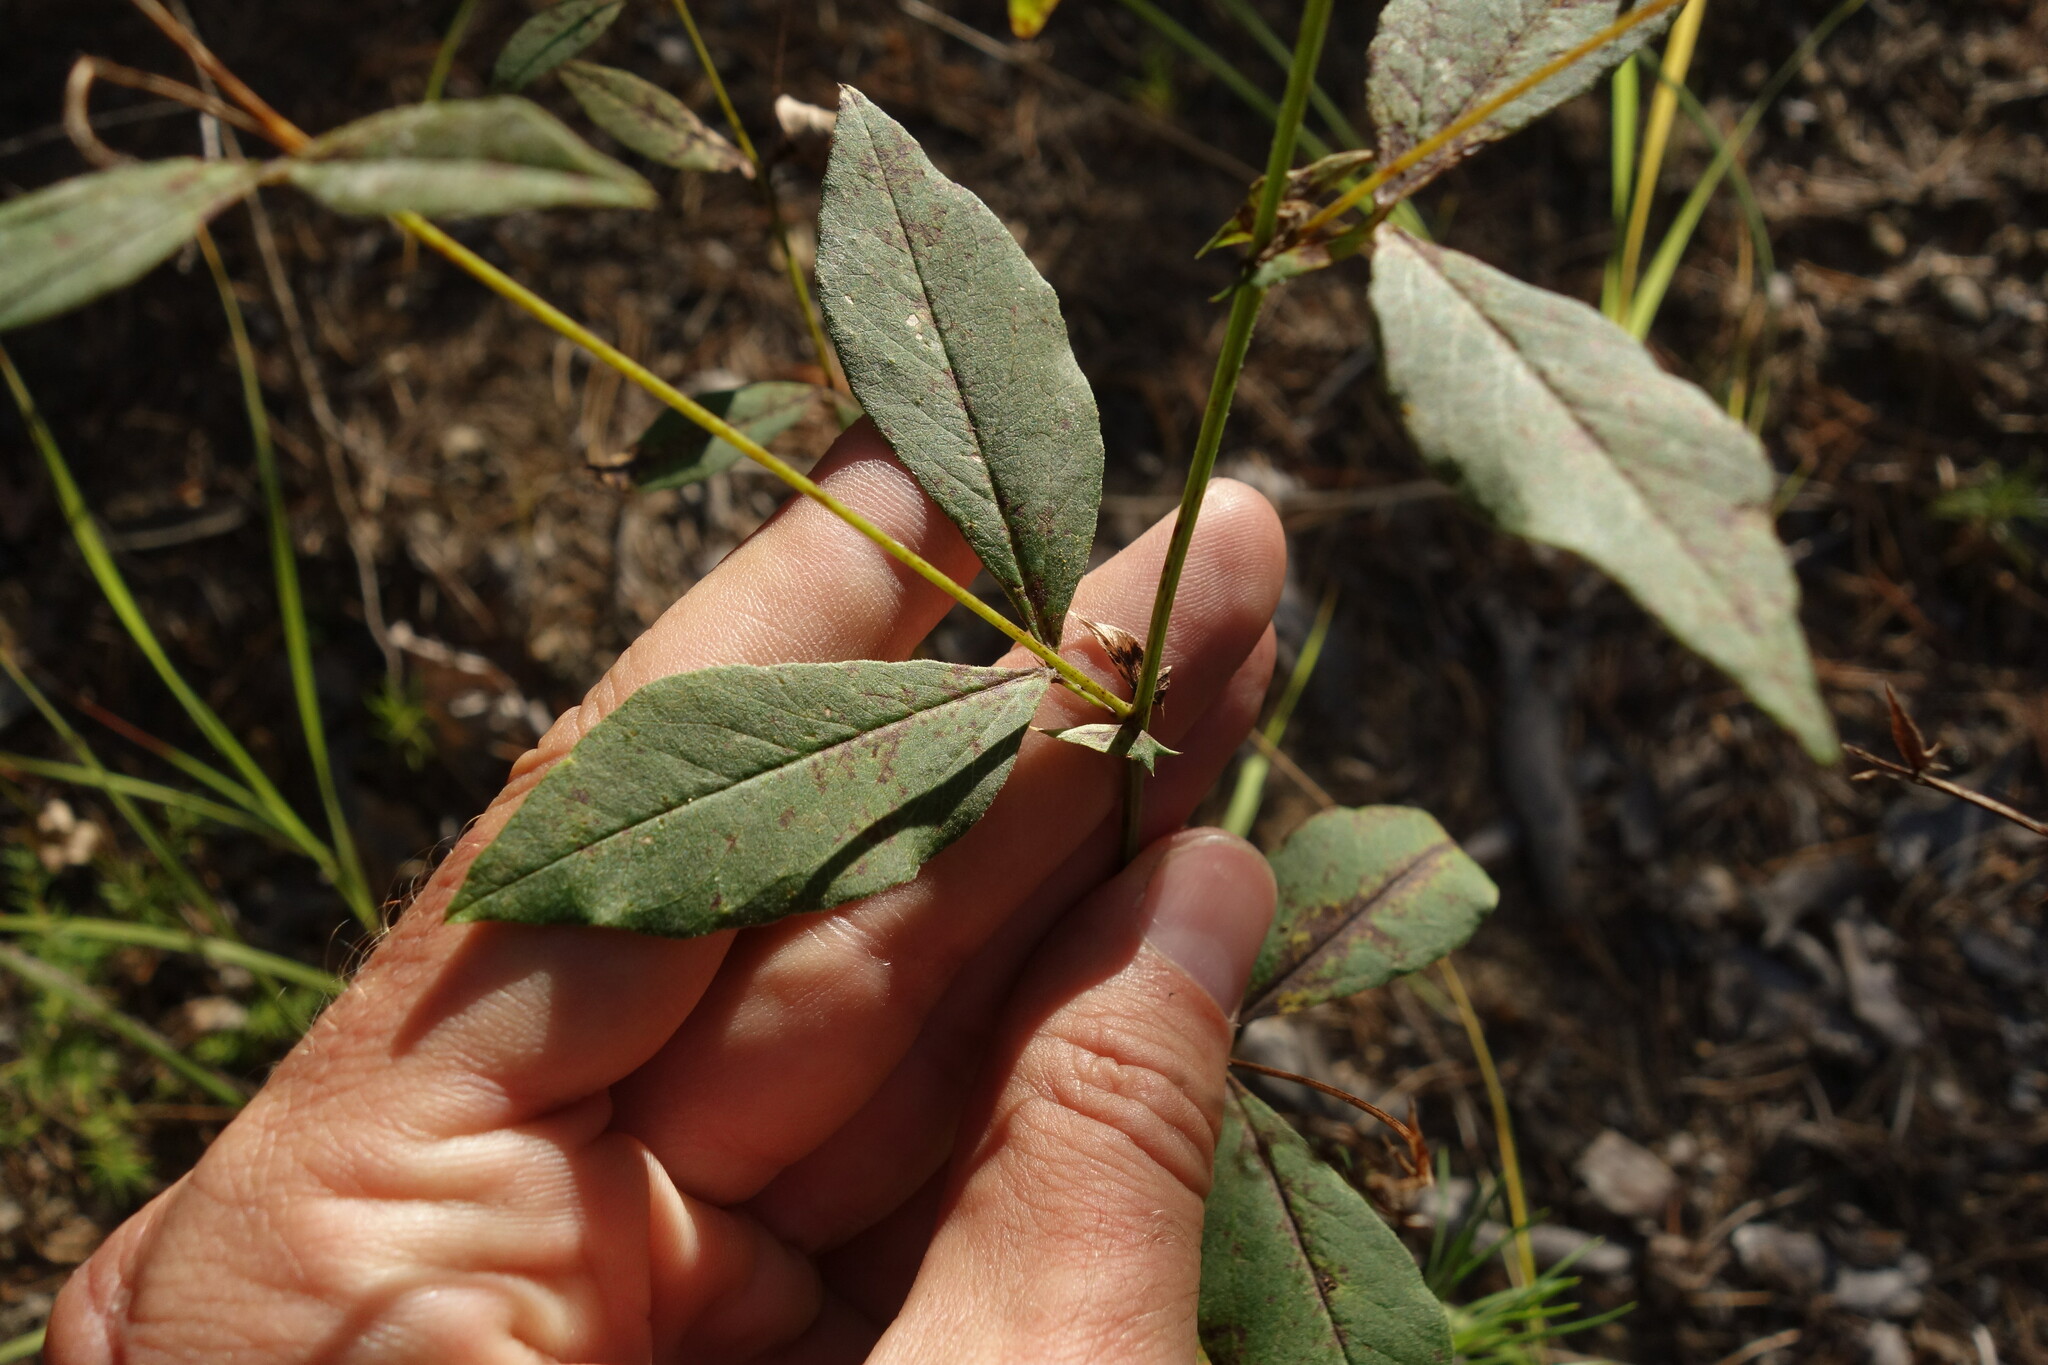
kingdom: Plantae
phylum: Tracheophyta
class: Magnoliopsida
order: Fabales
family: Fabaceae
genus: Vicia
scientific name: Vicia unijuga
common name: Two-leaf vetch
